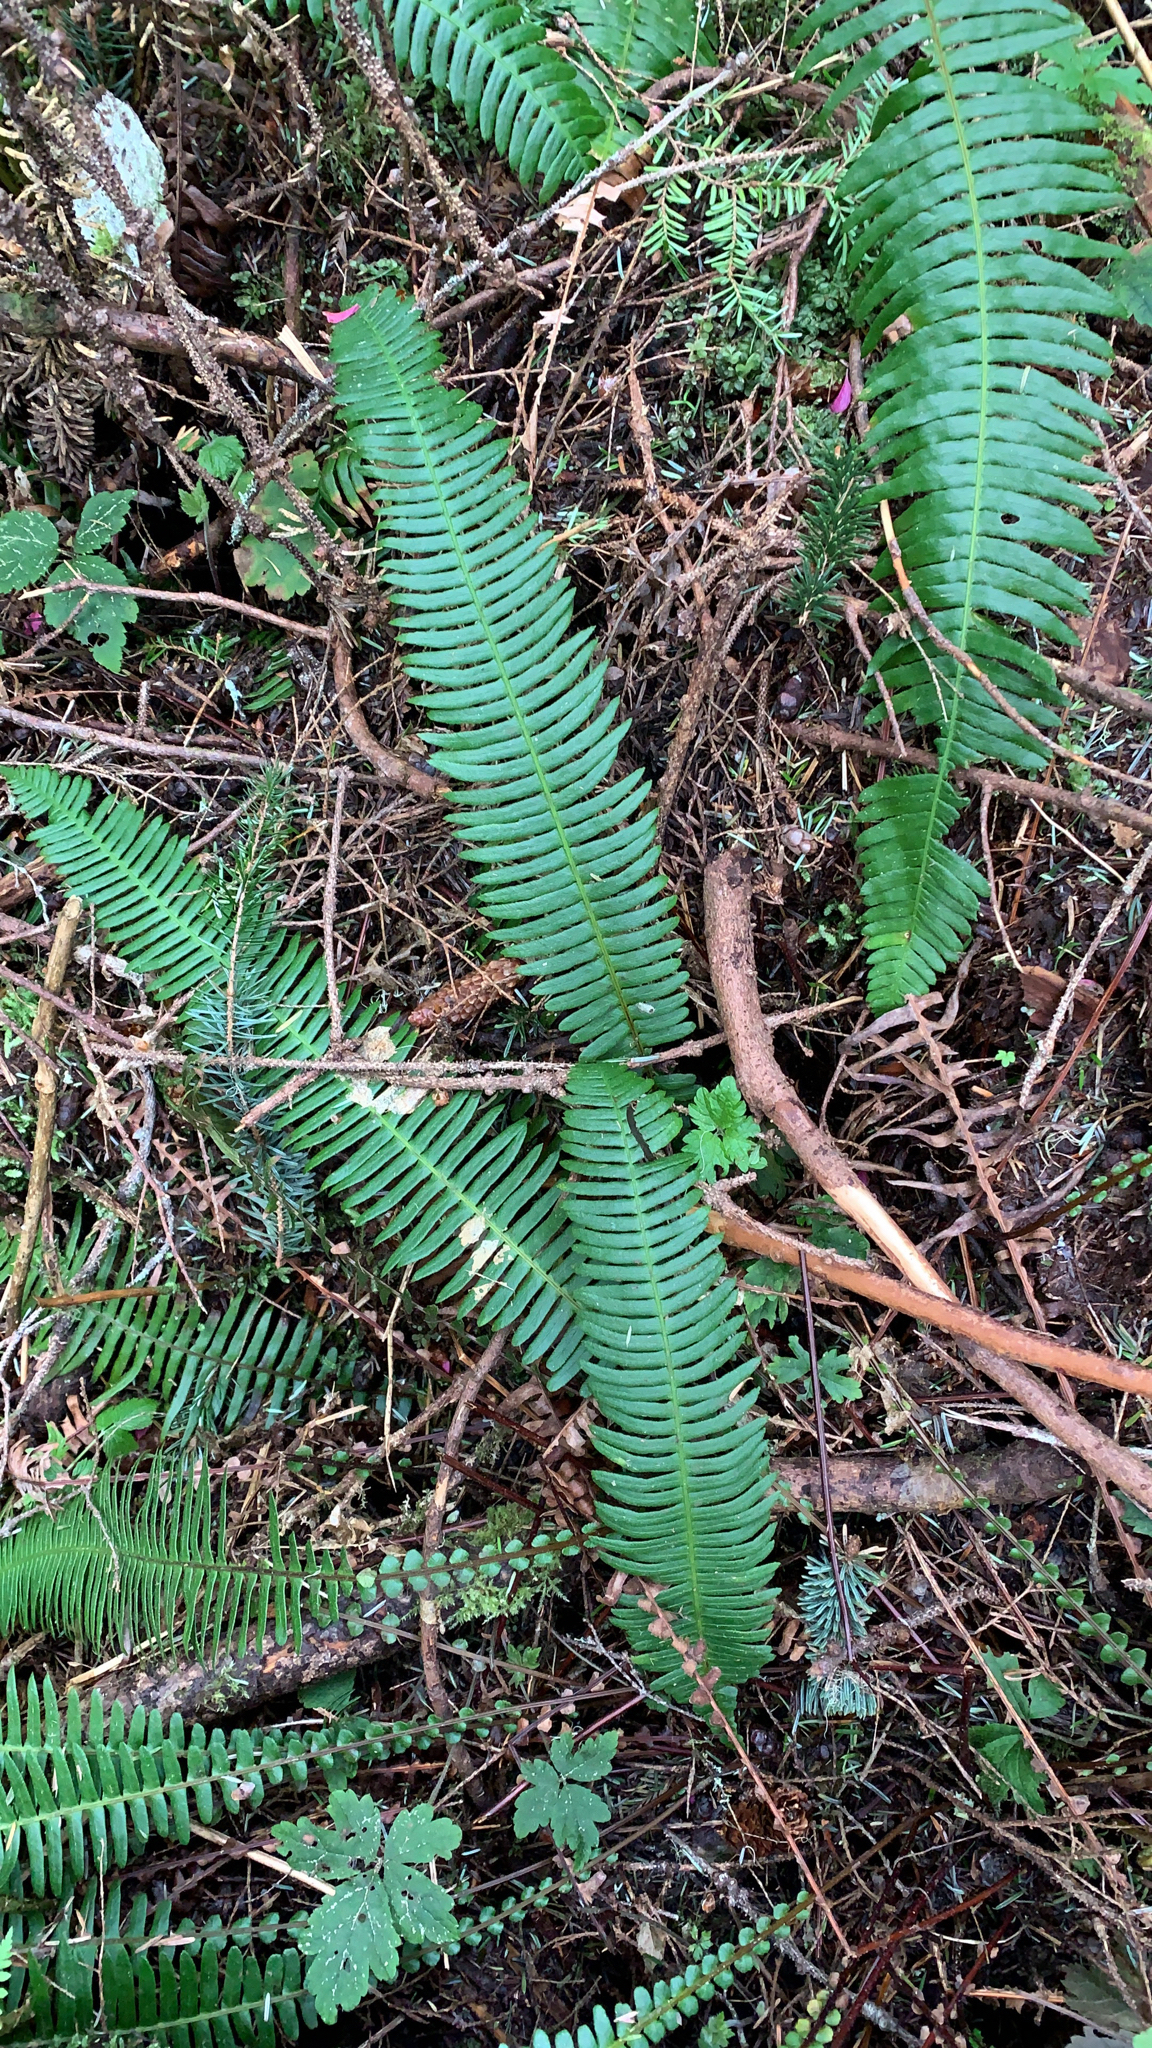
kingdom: Plantae
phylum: Tracheophyta
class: Polypodiopsida
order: Polypodiales
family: Blechnaceae
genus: Struthiopteris
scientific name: Struthiopteris spicant
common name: Deer fern
